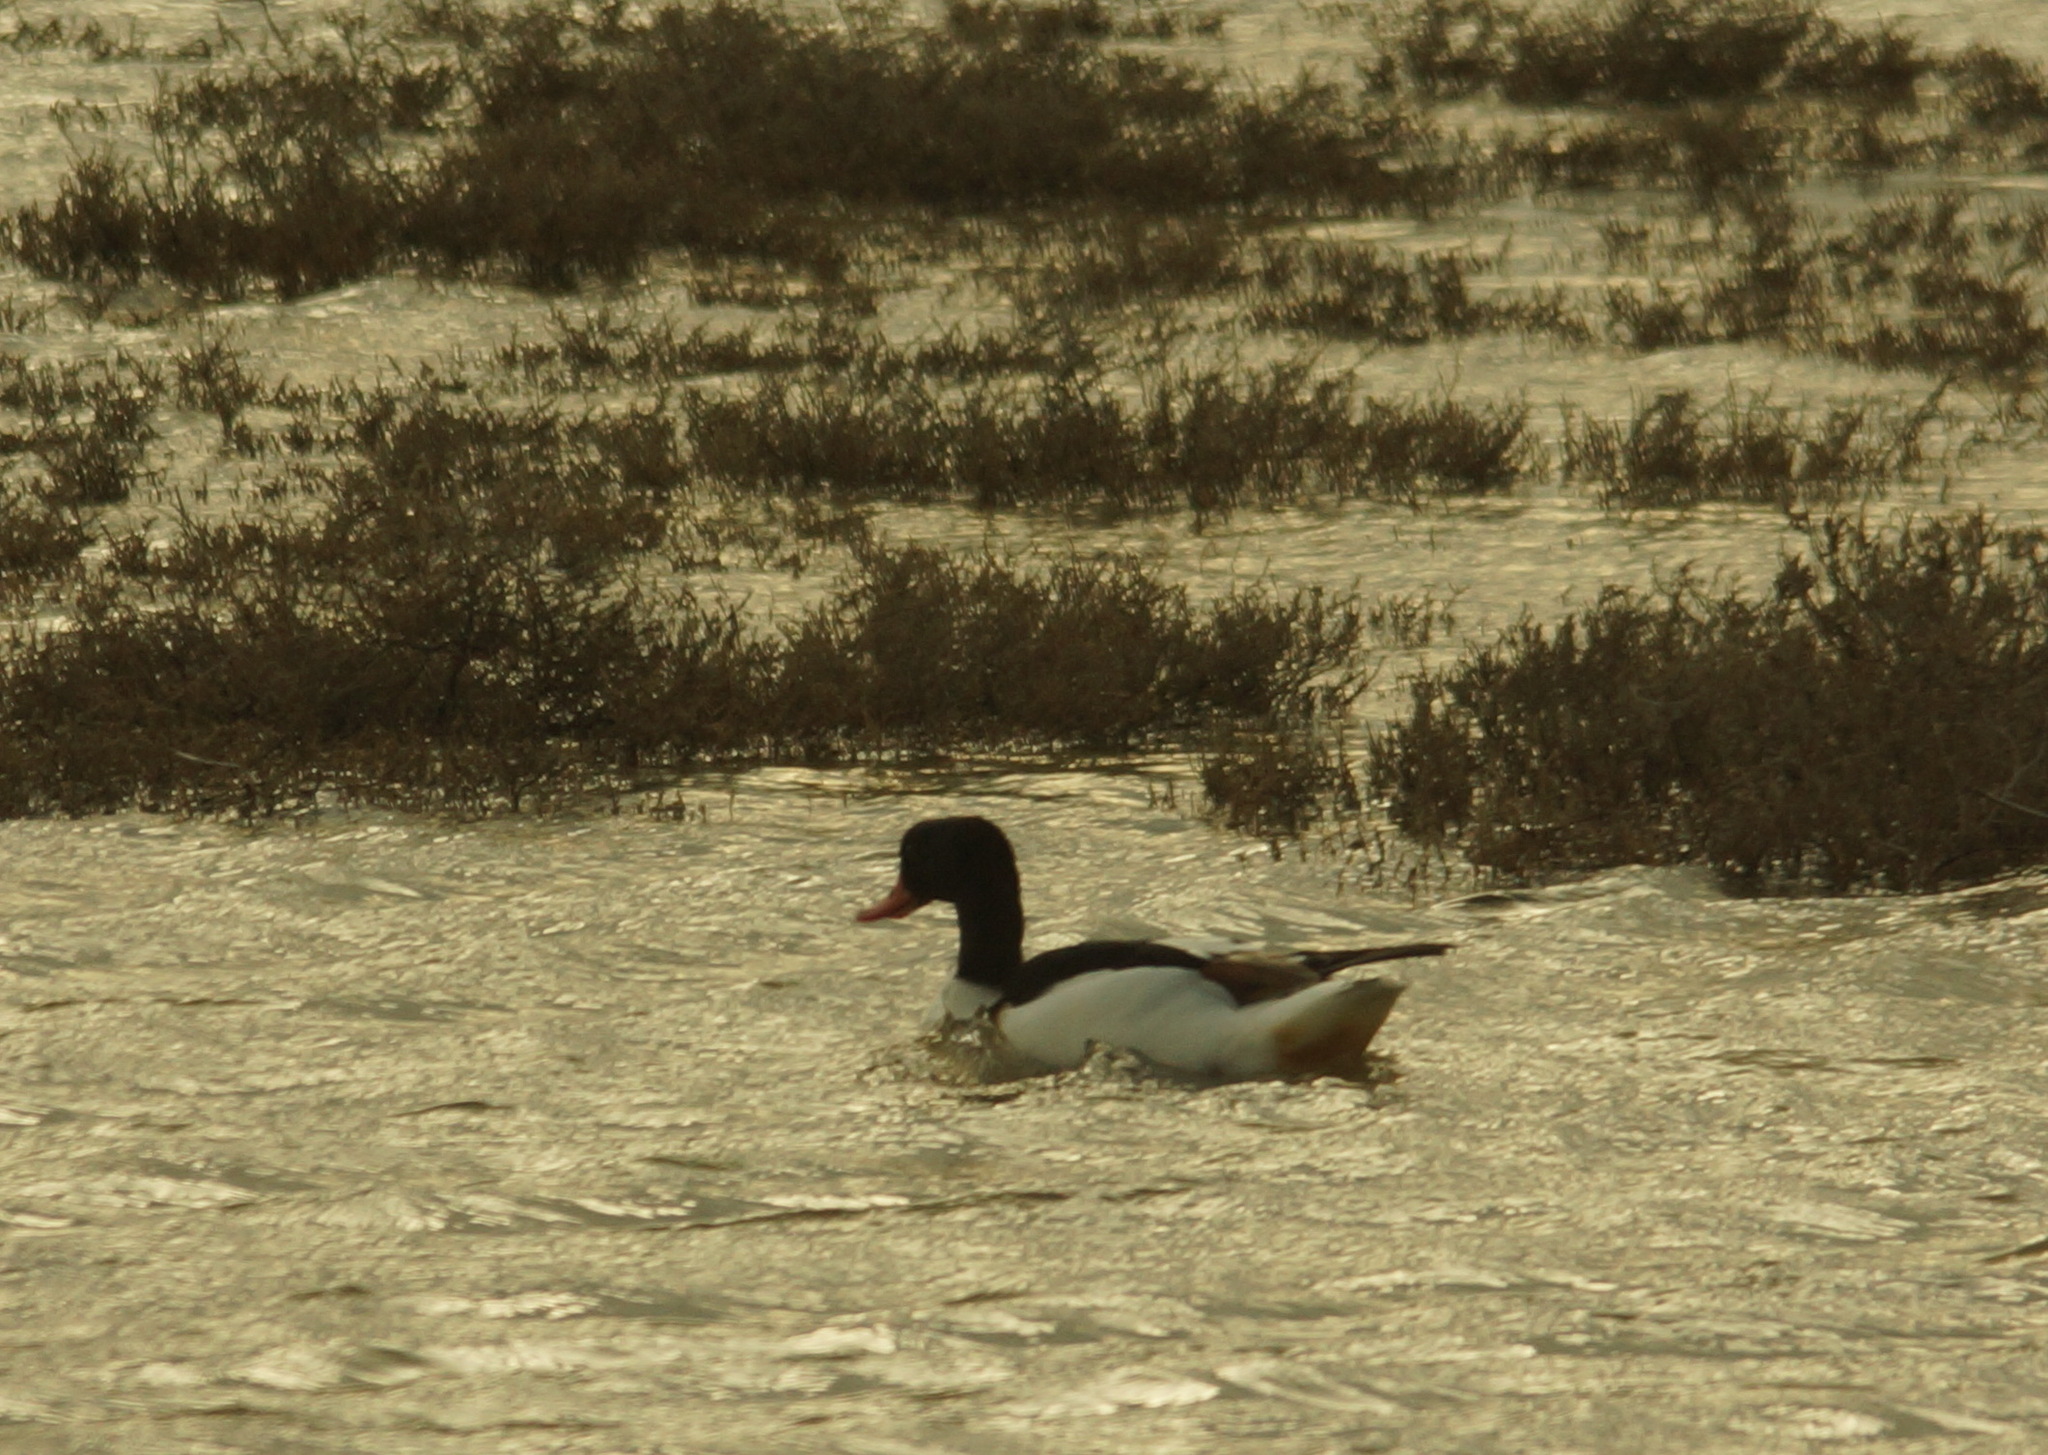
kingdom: Animalia
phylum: Chordata
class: Aves
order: Anseriformes
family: Anatidae
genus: Tadorna
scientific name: Tadorna tadorna
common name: Common shelduck
